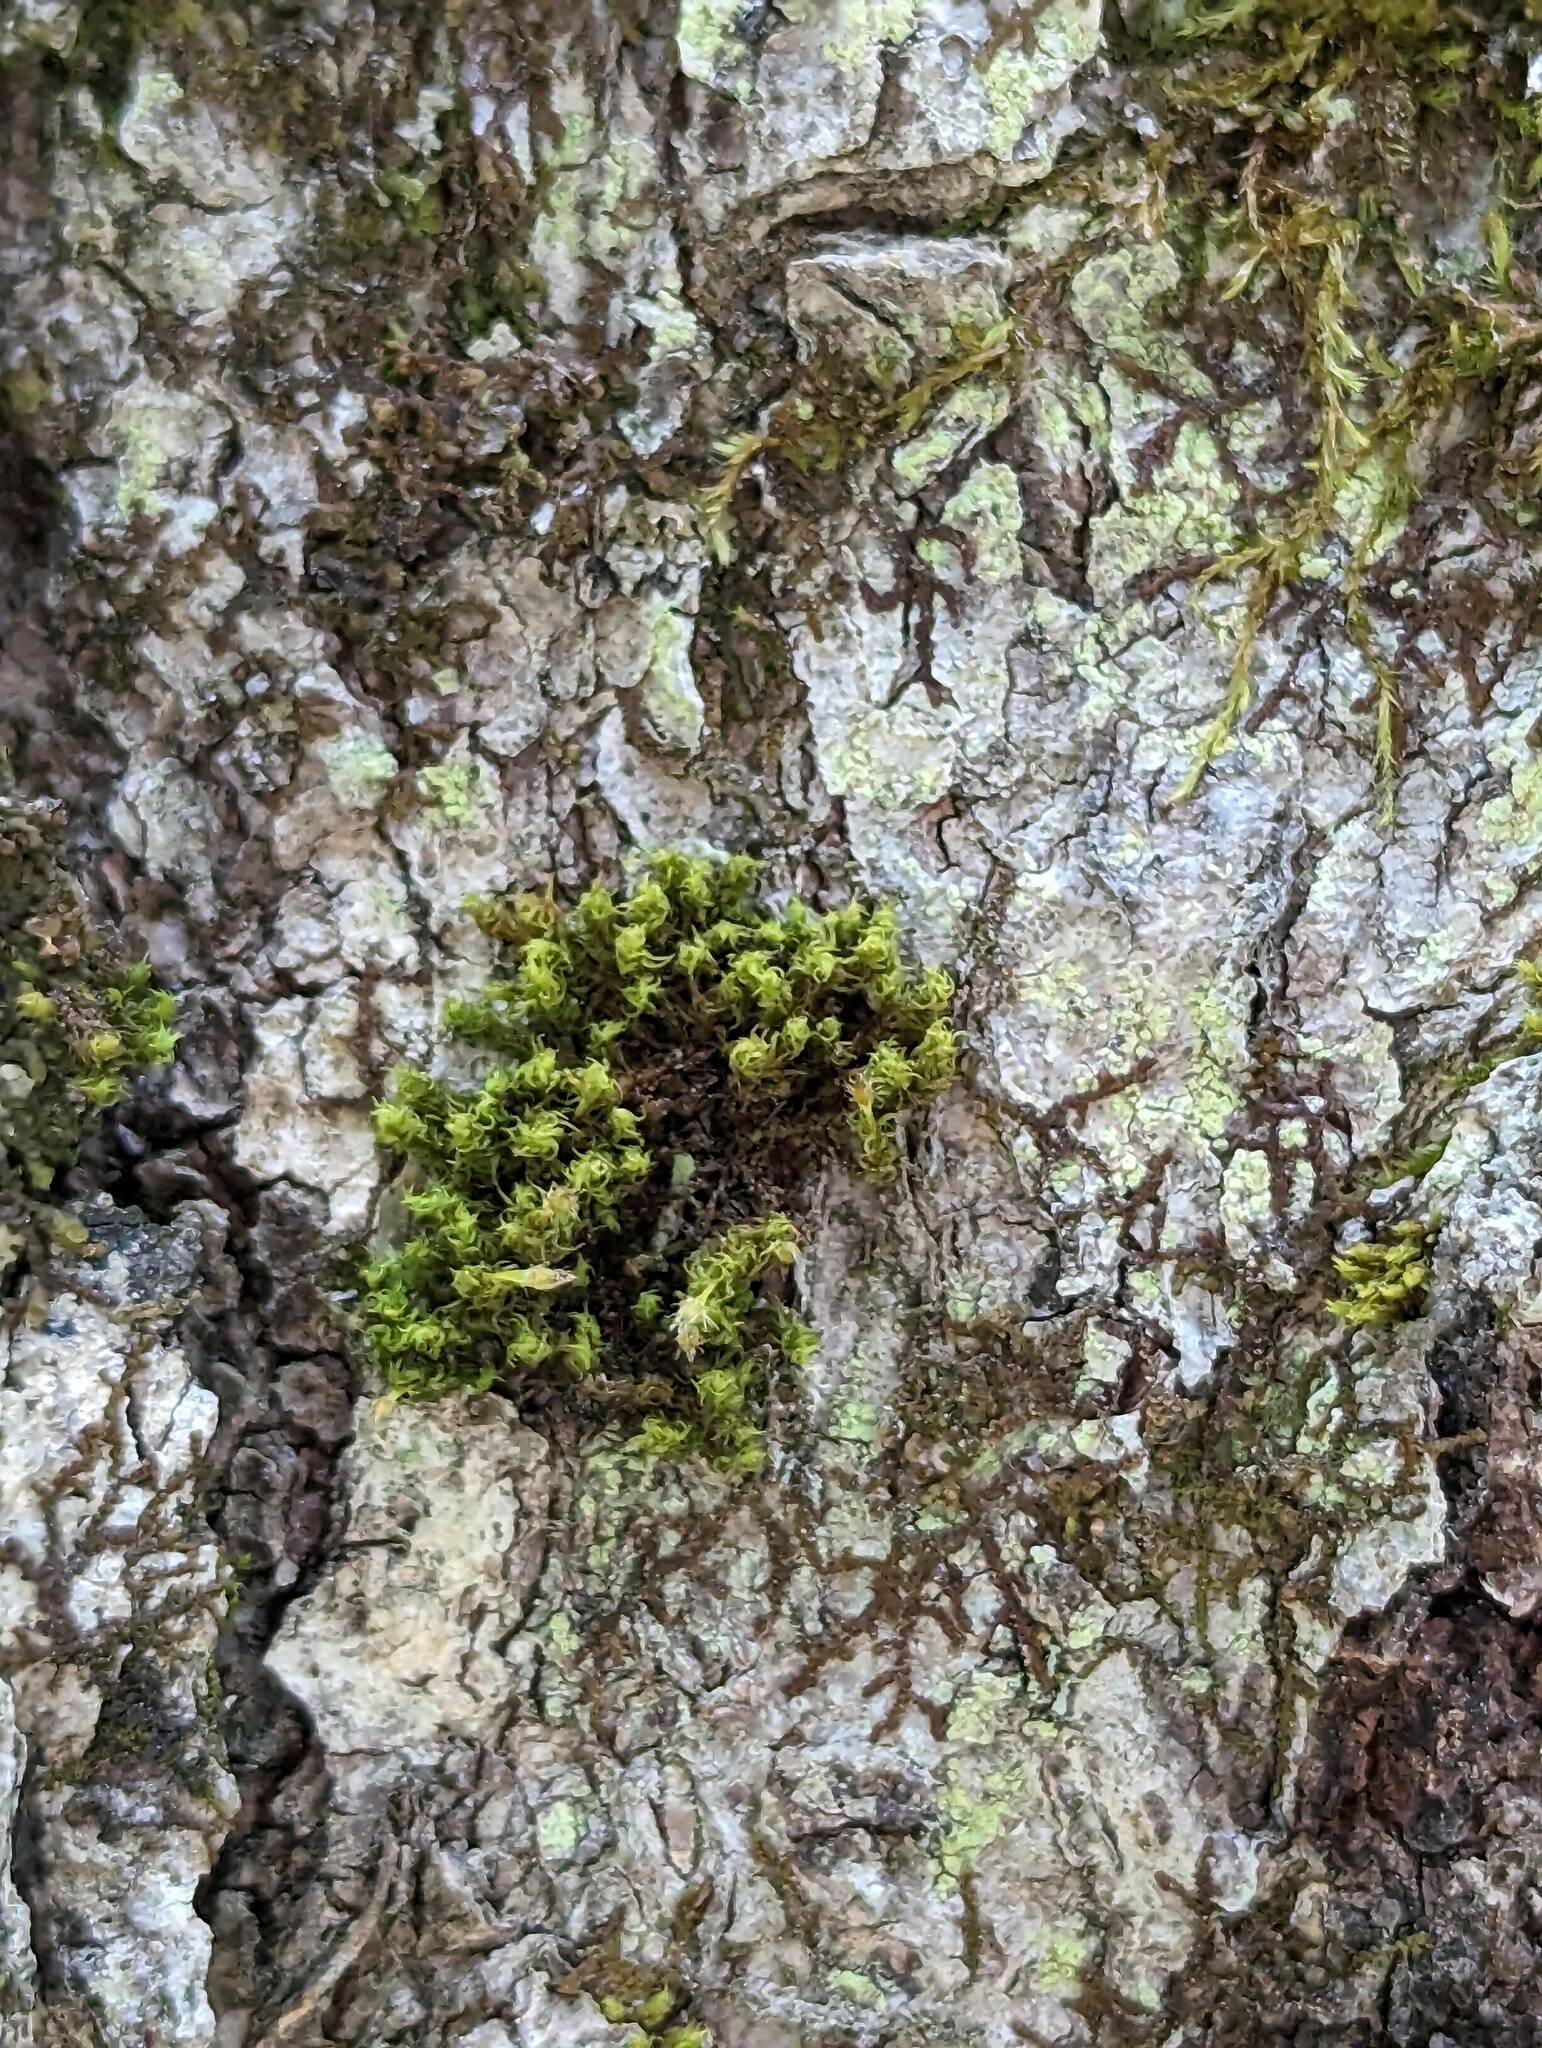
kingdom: Plantae
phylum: Bryophyta
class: Bryopsida
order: Orthotrichales
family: Orthotrichaceae
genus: Ulota
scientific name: Ulota crispa
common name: Crisped pincushion moss
